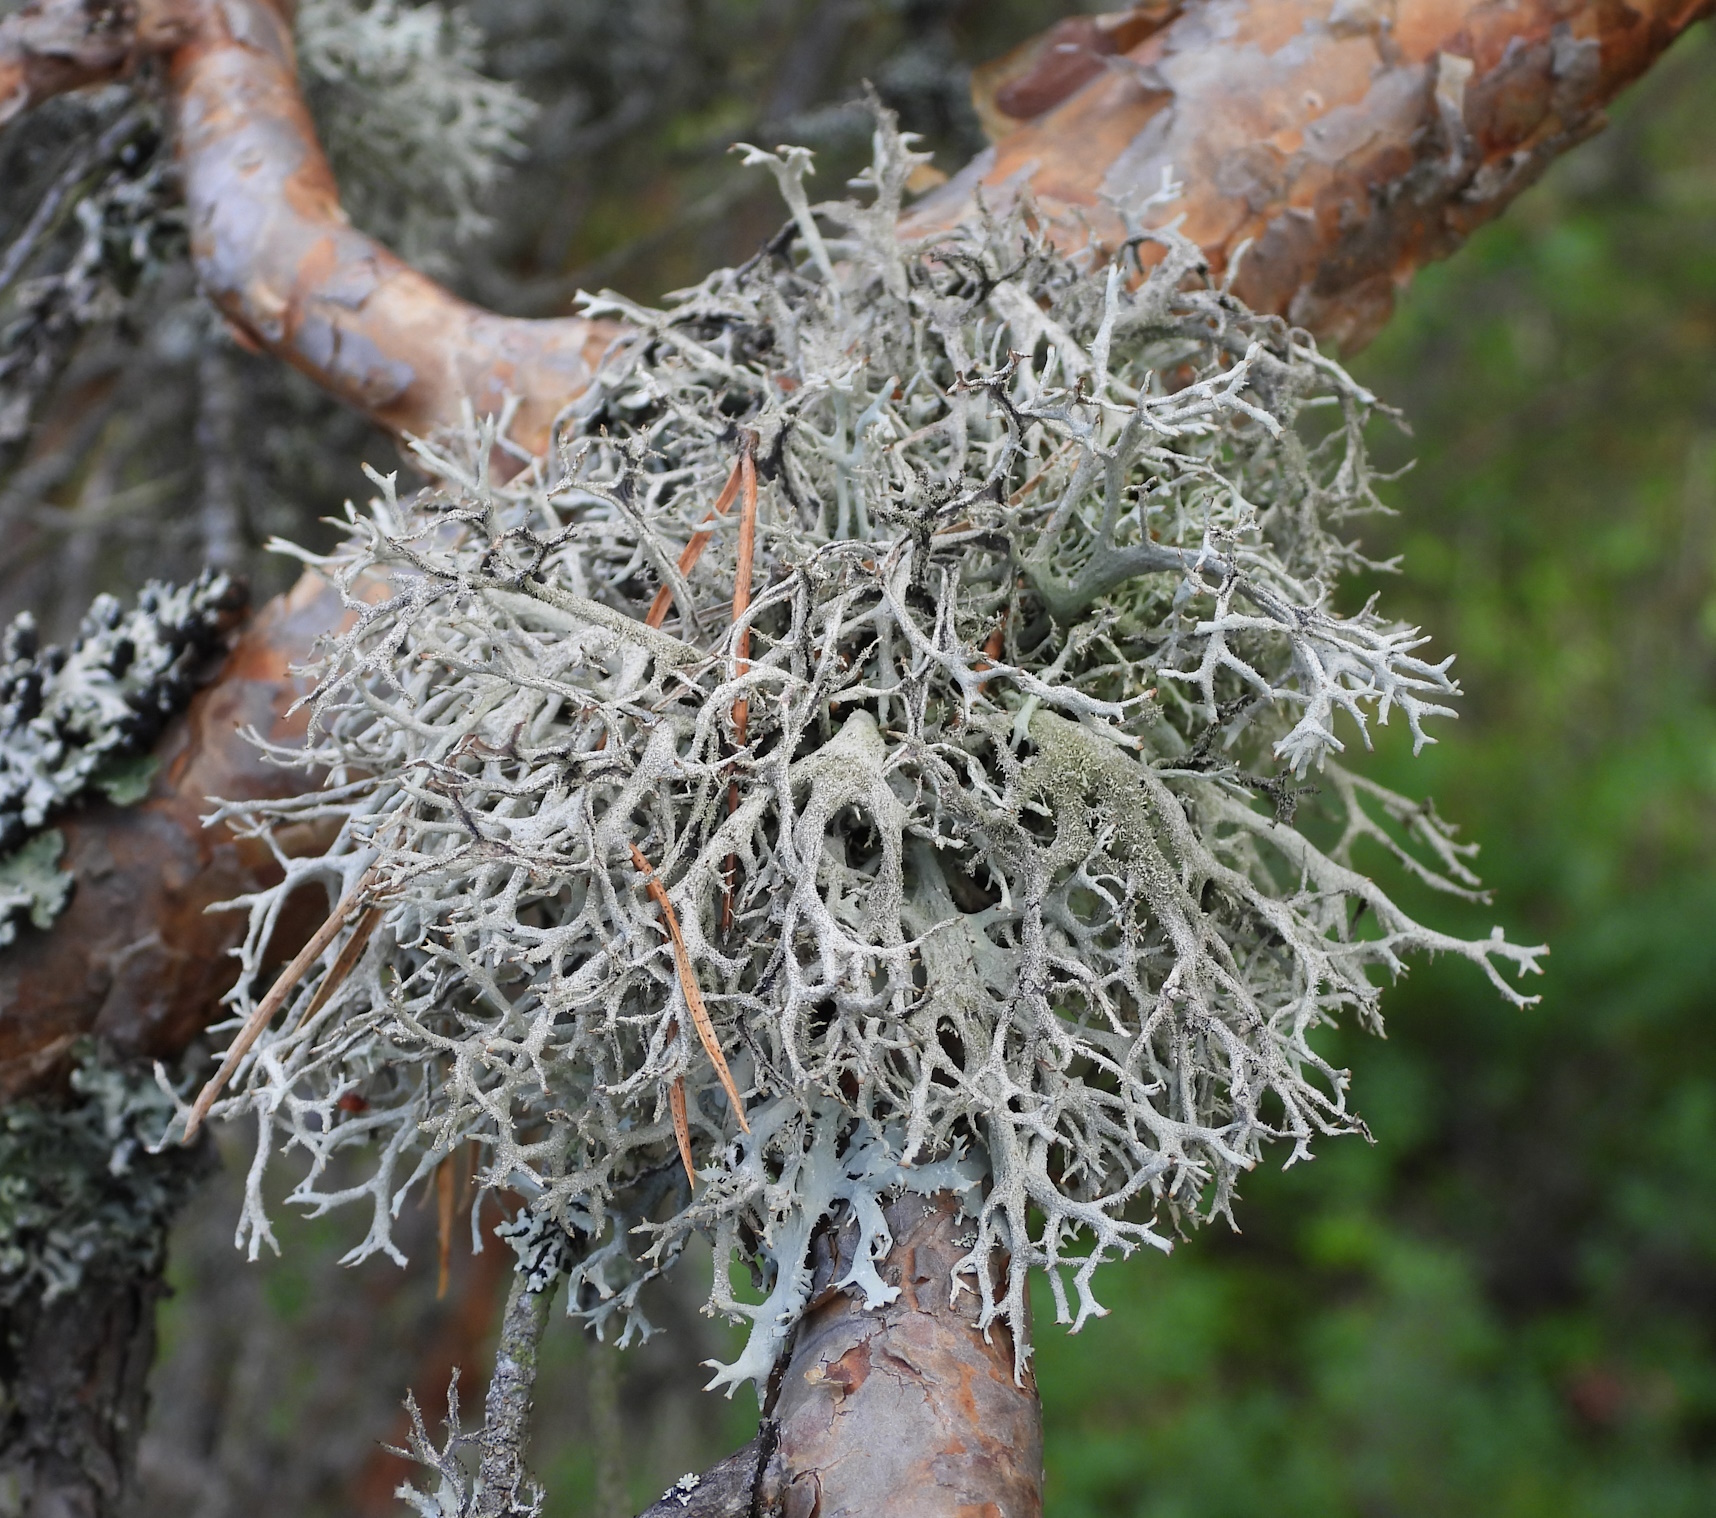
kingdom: Fungi
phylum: Ascomycota
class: Lecanoromycetes
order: Lecanorales
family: Parmeliaceae
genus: Pseudevernia
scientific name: Pseudevernia furfuracea
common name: Tree moss
